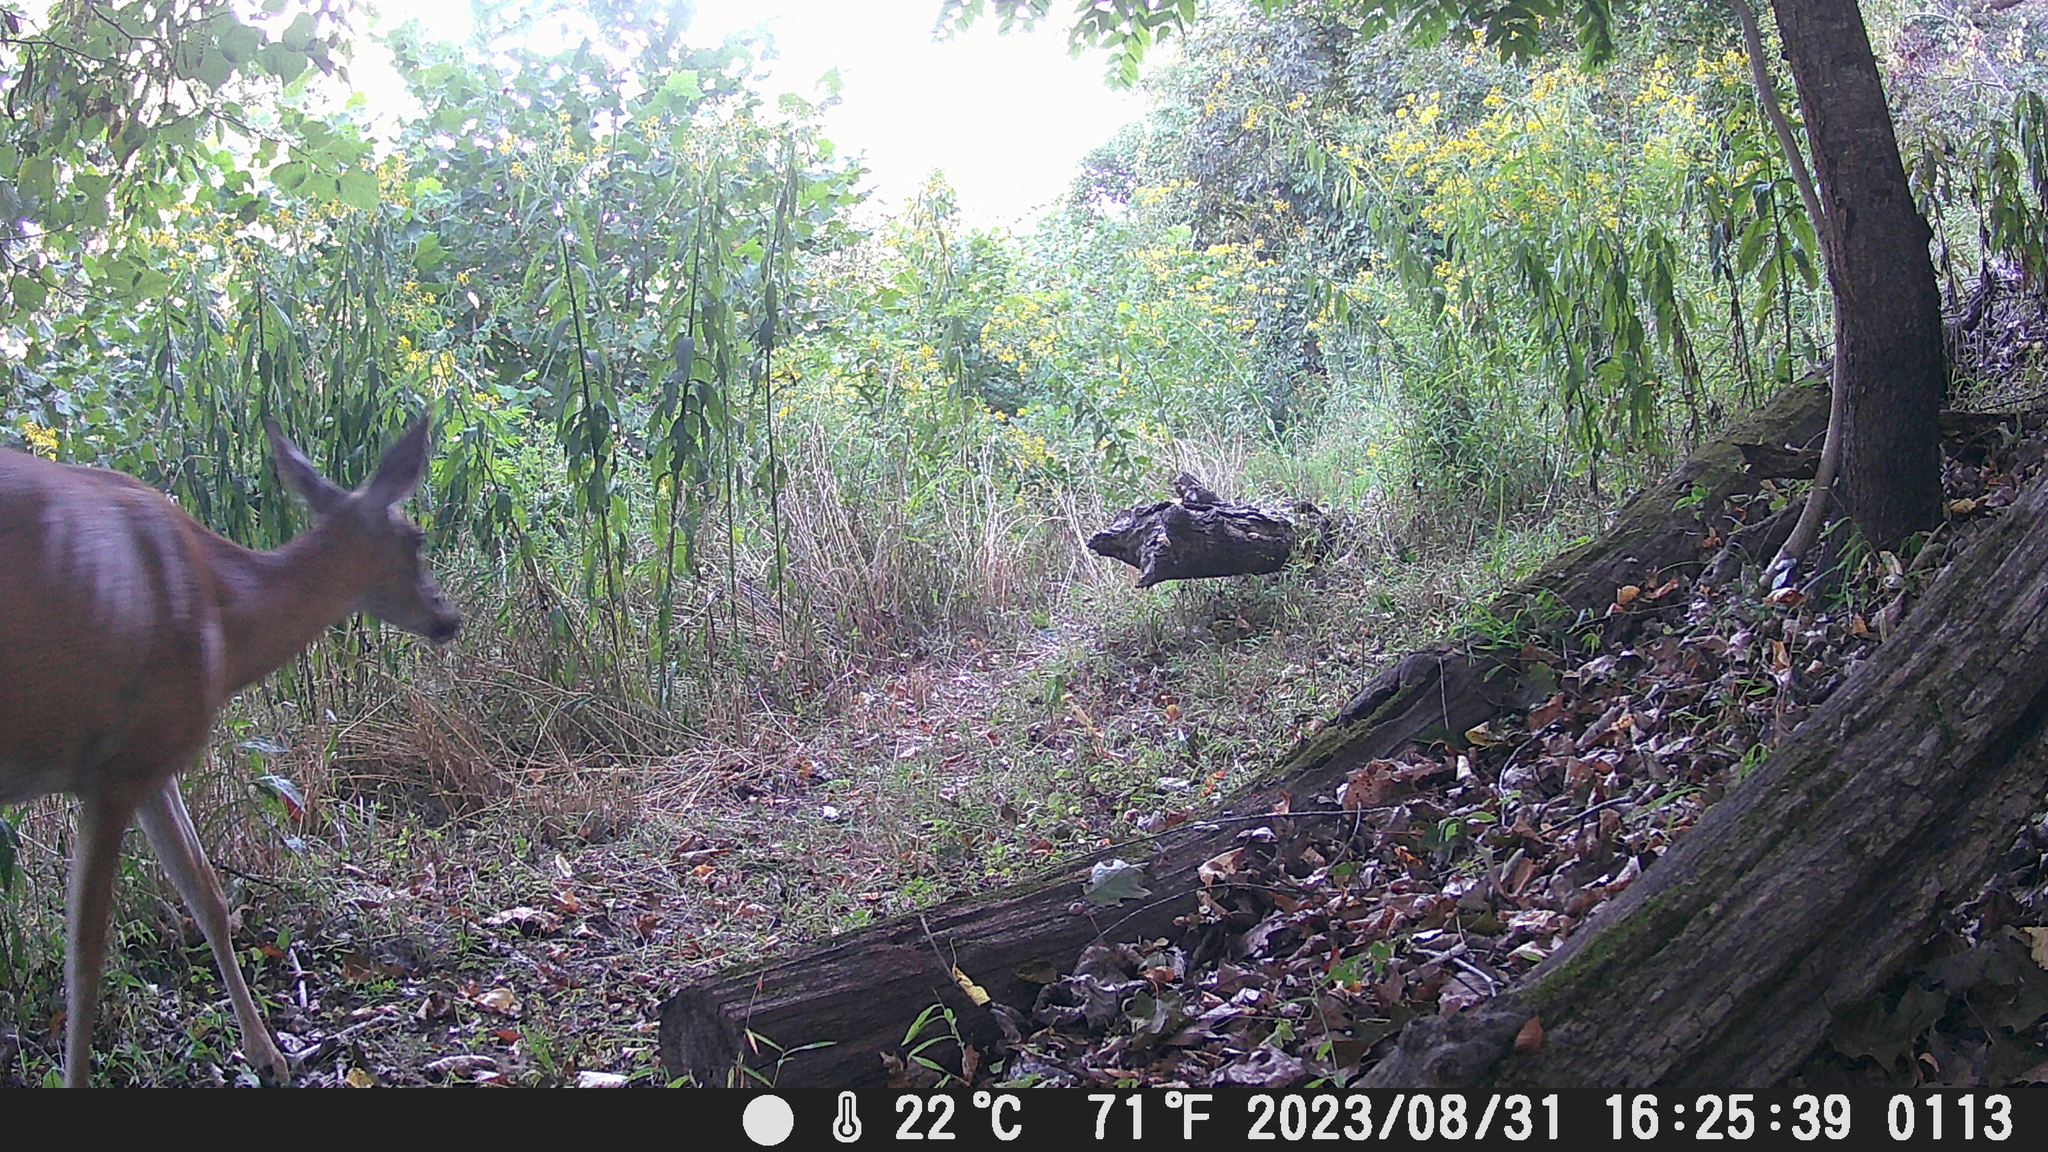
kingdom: Animalia
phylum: Chordata
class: Mammalia
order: Artiodactyla
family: Cervidae
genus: Odocoileus
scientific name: Odocoileus virginianus
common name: White-tailed deer
